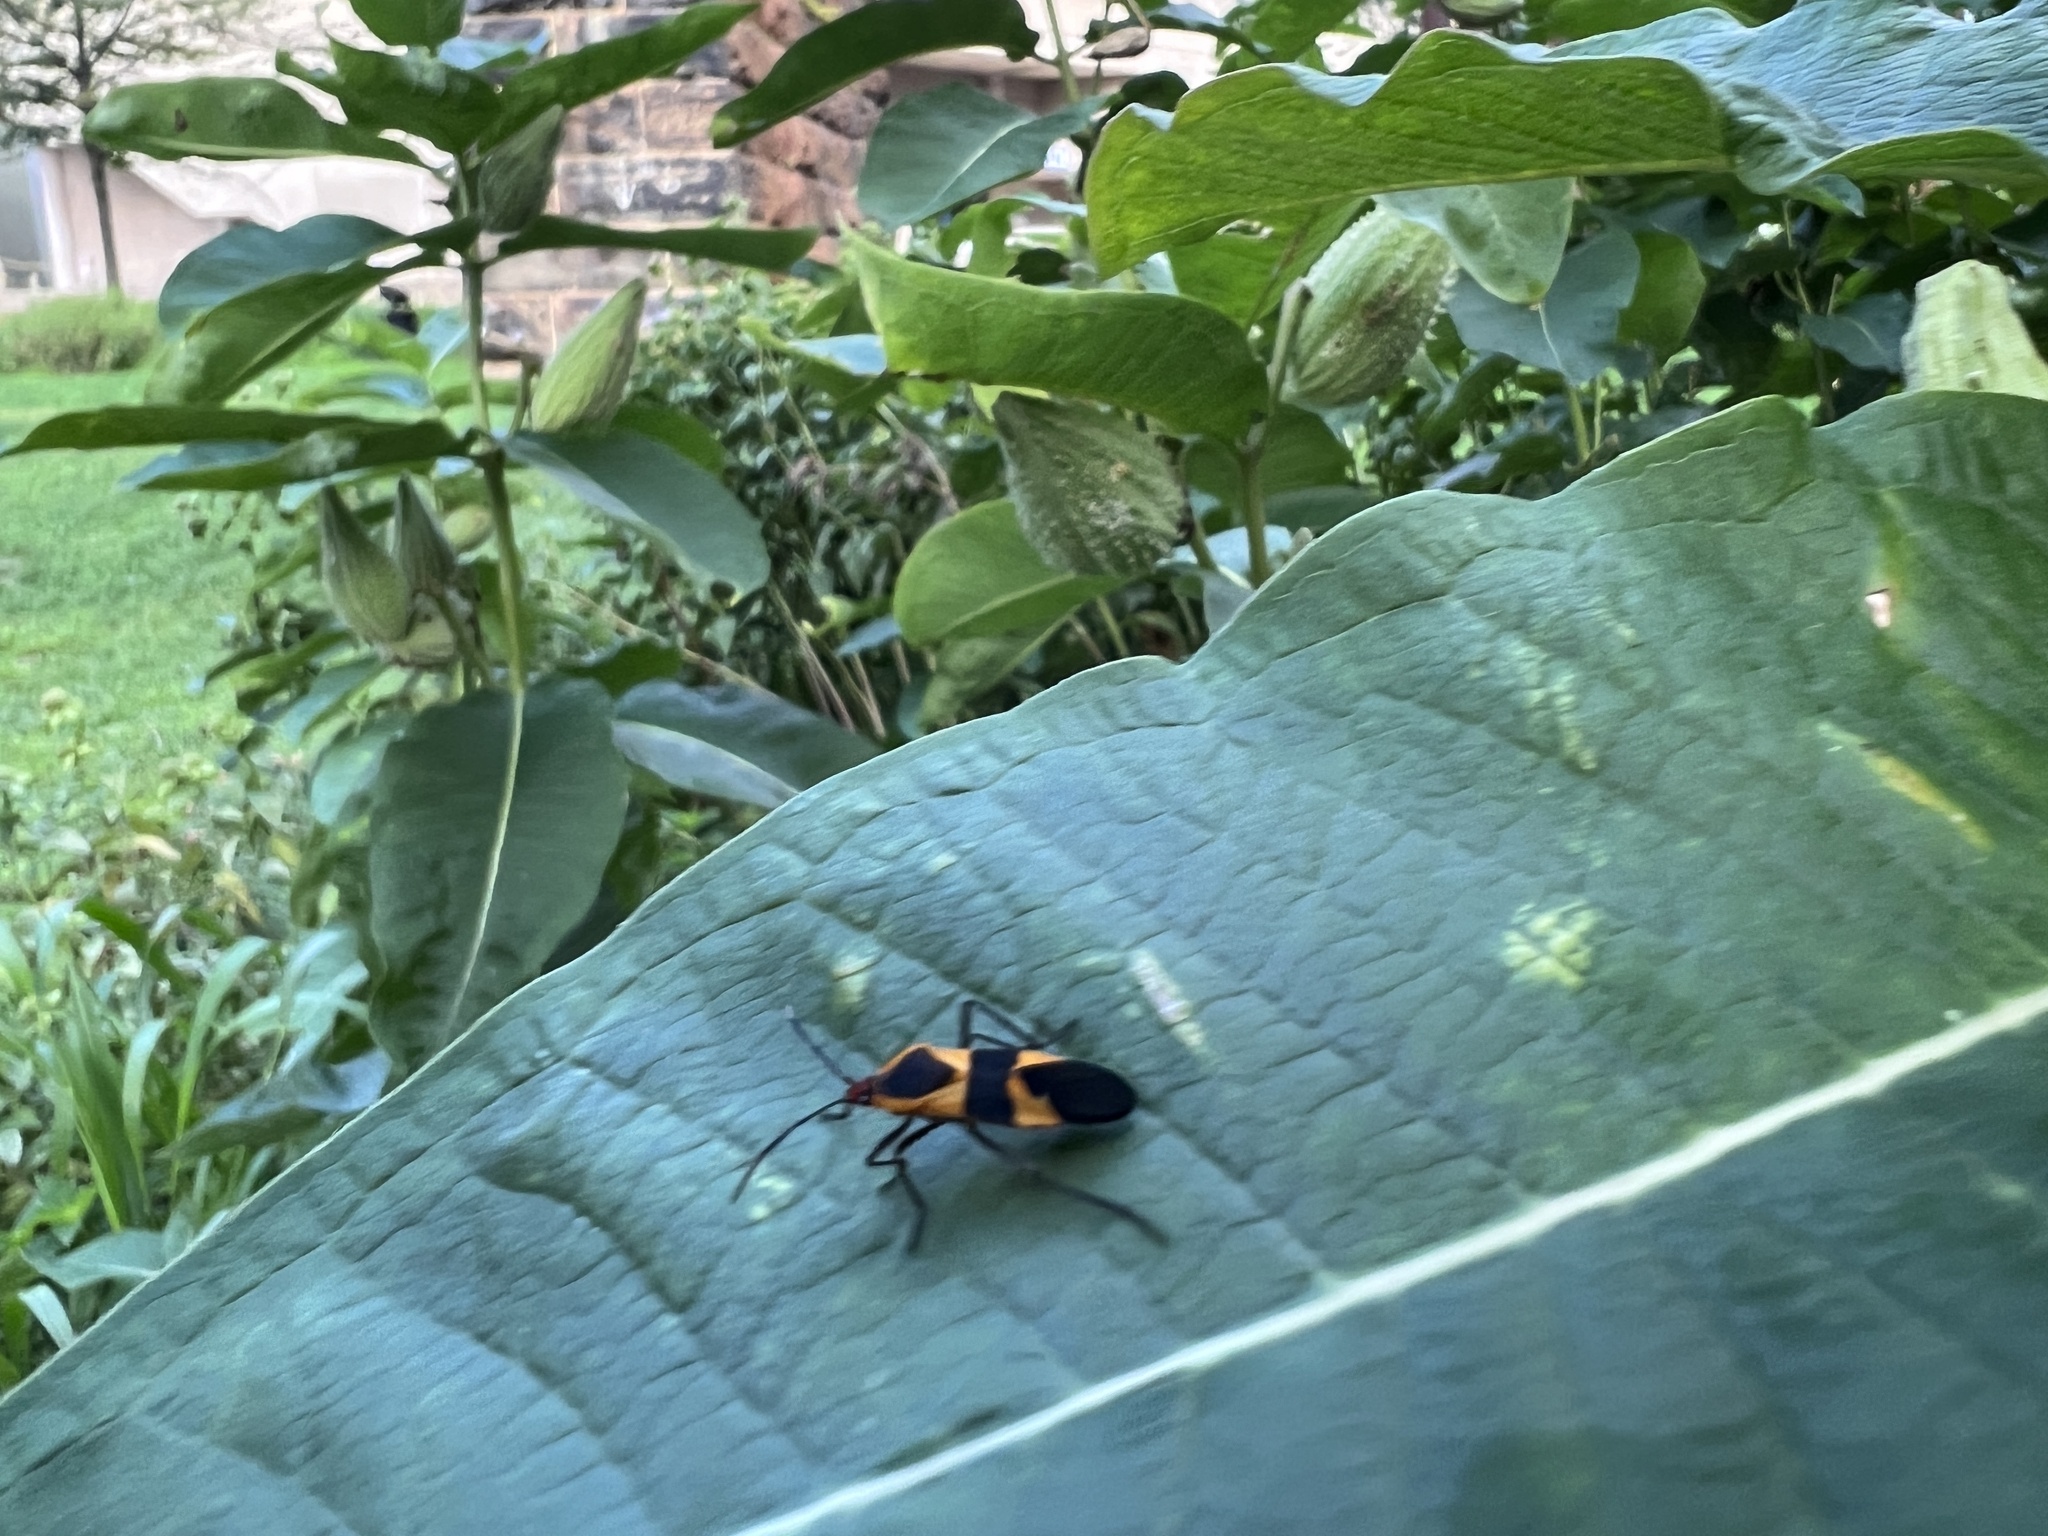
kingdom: Animalia
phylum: Arthropoda
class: Insecta
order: Hemiptera
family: Lygaeidae
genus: Oncopeltus
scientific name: Oncopeltus fasciatus
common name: Large milkweed bug
